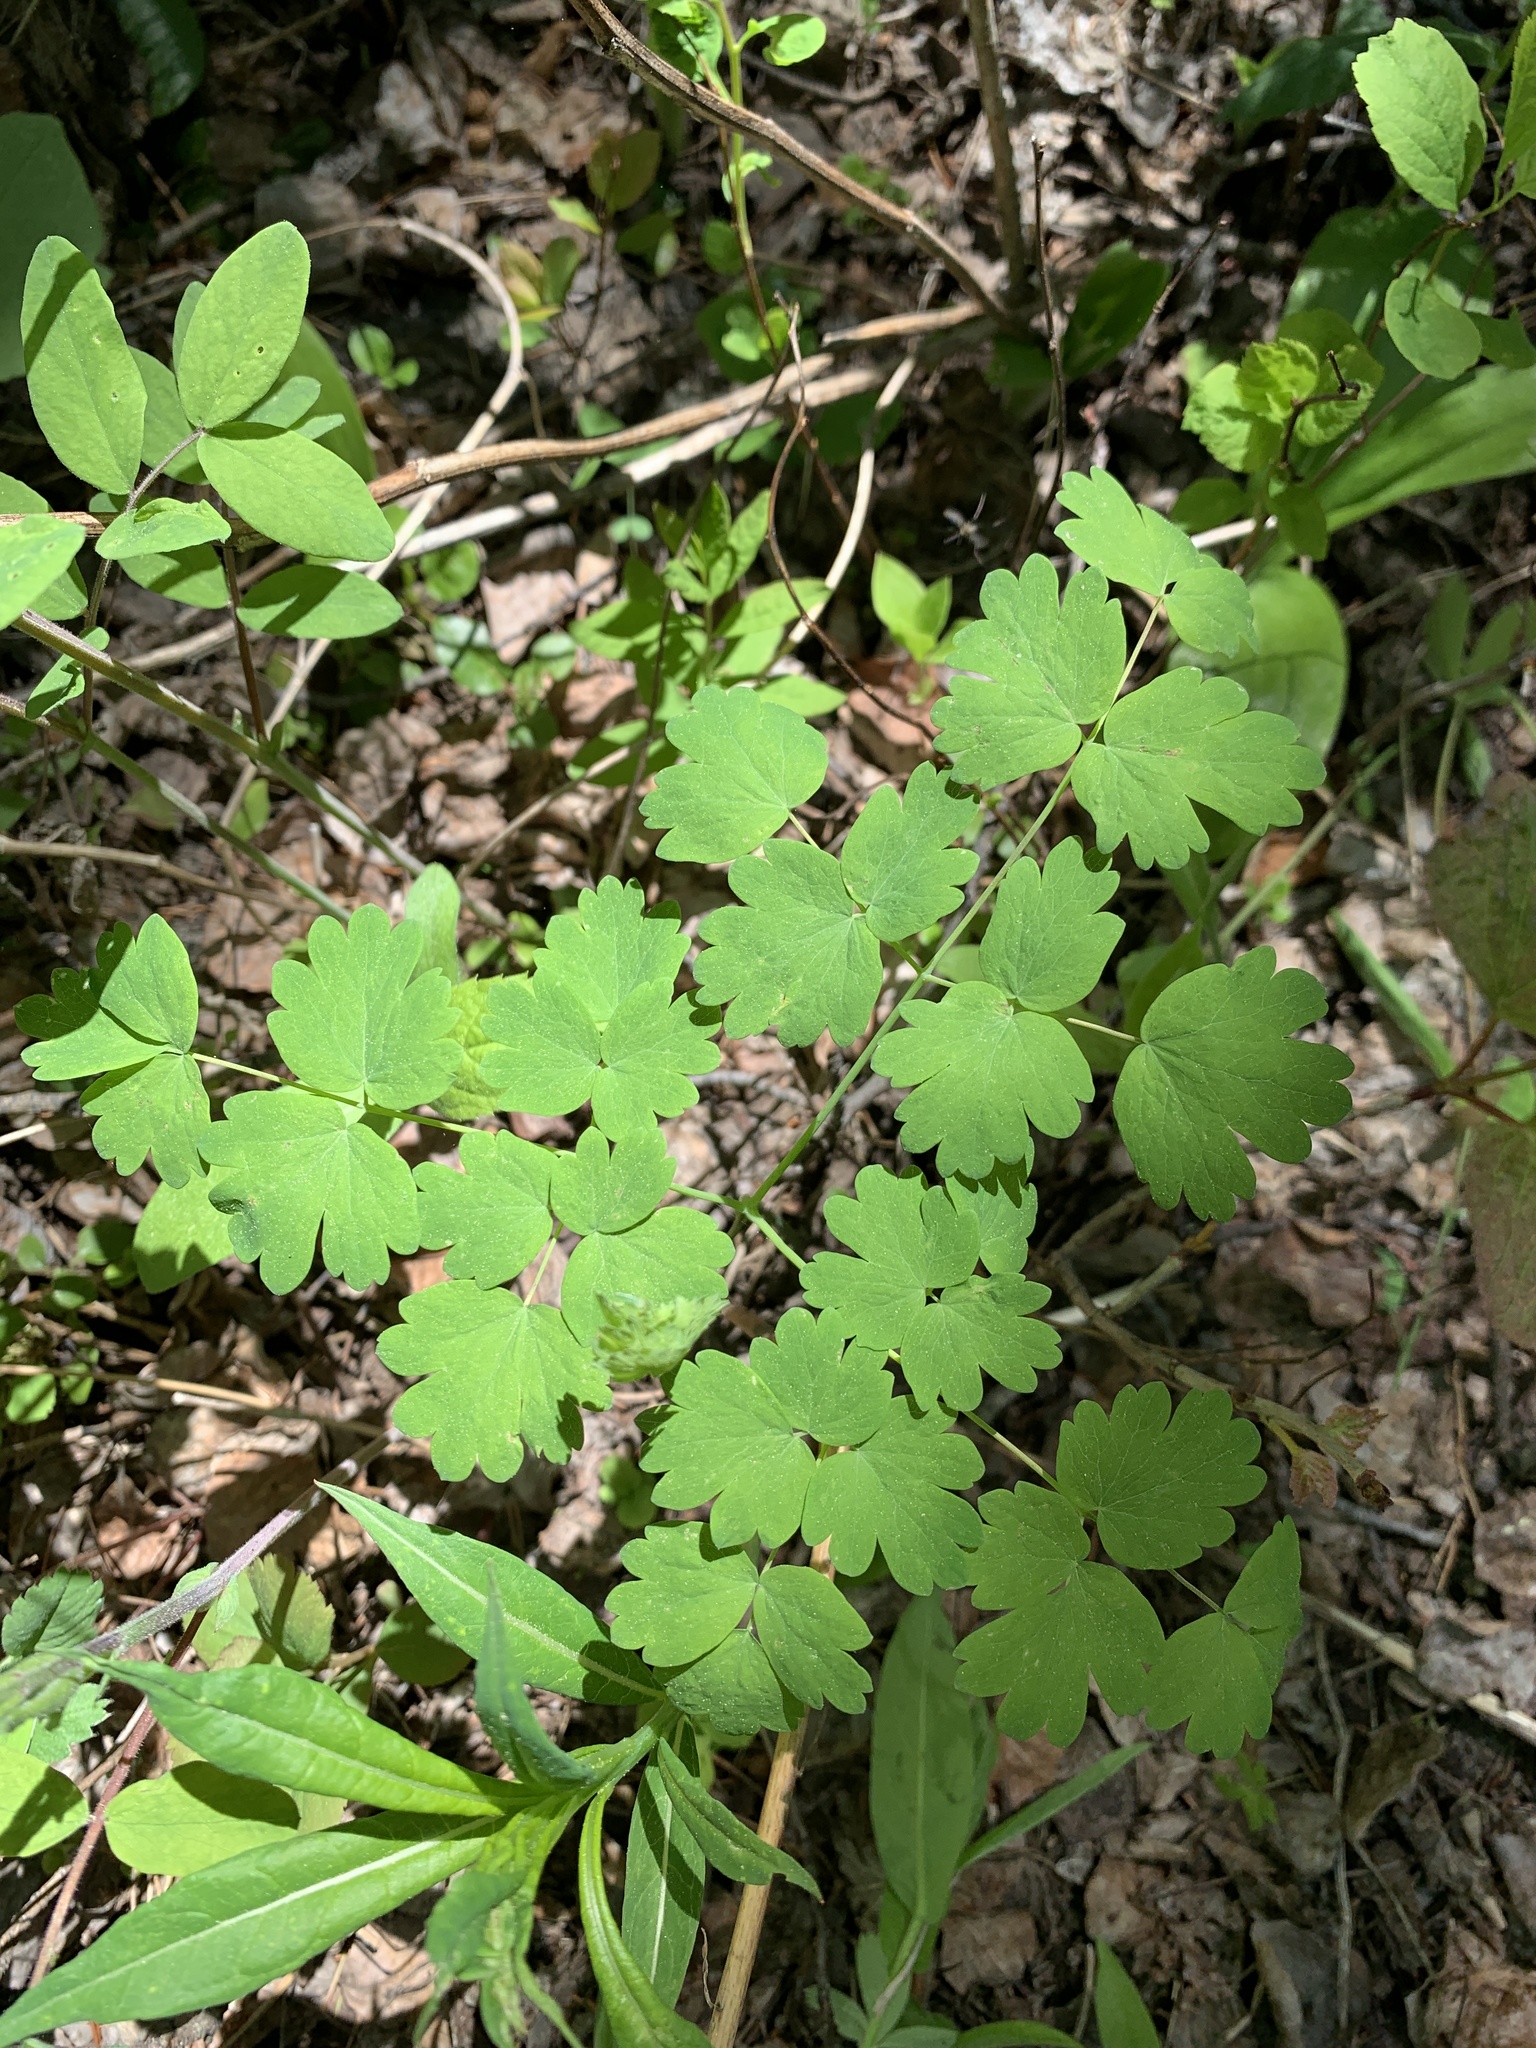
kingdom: Plantae
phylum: Tracheophyta
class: Magnoliopsida
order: Ranunculales
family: Ranunculaceae
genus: Thalictrum
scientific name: Thalictrum occidentale
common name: Western meadow-rue
